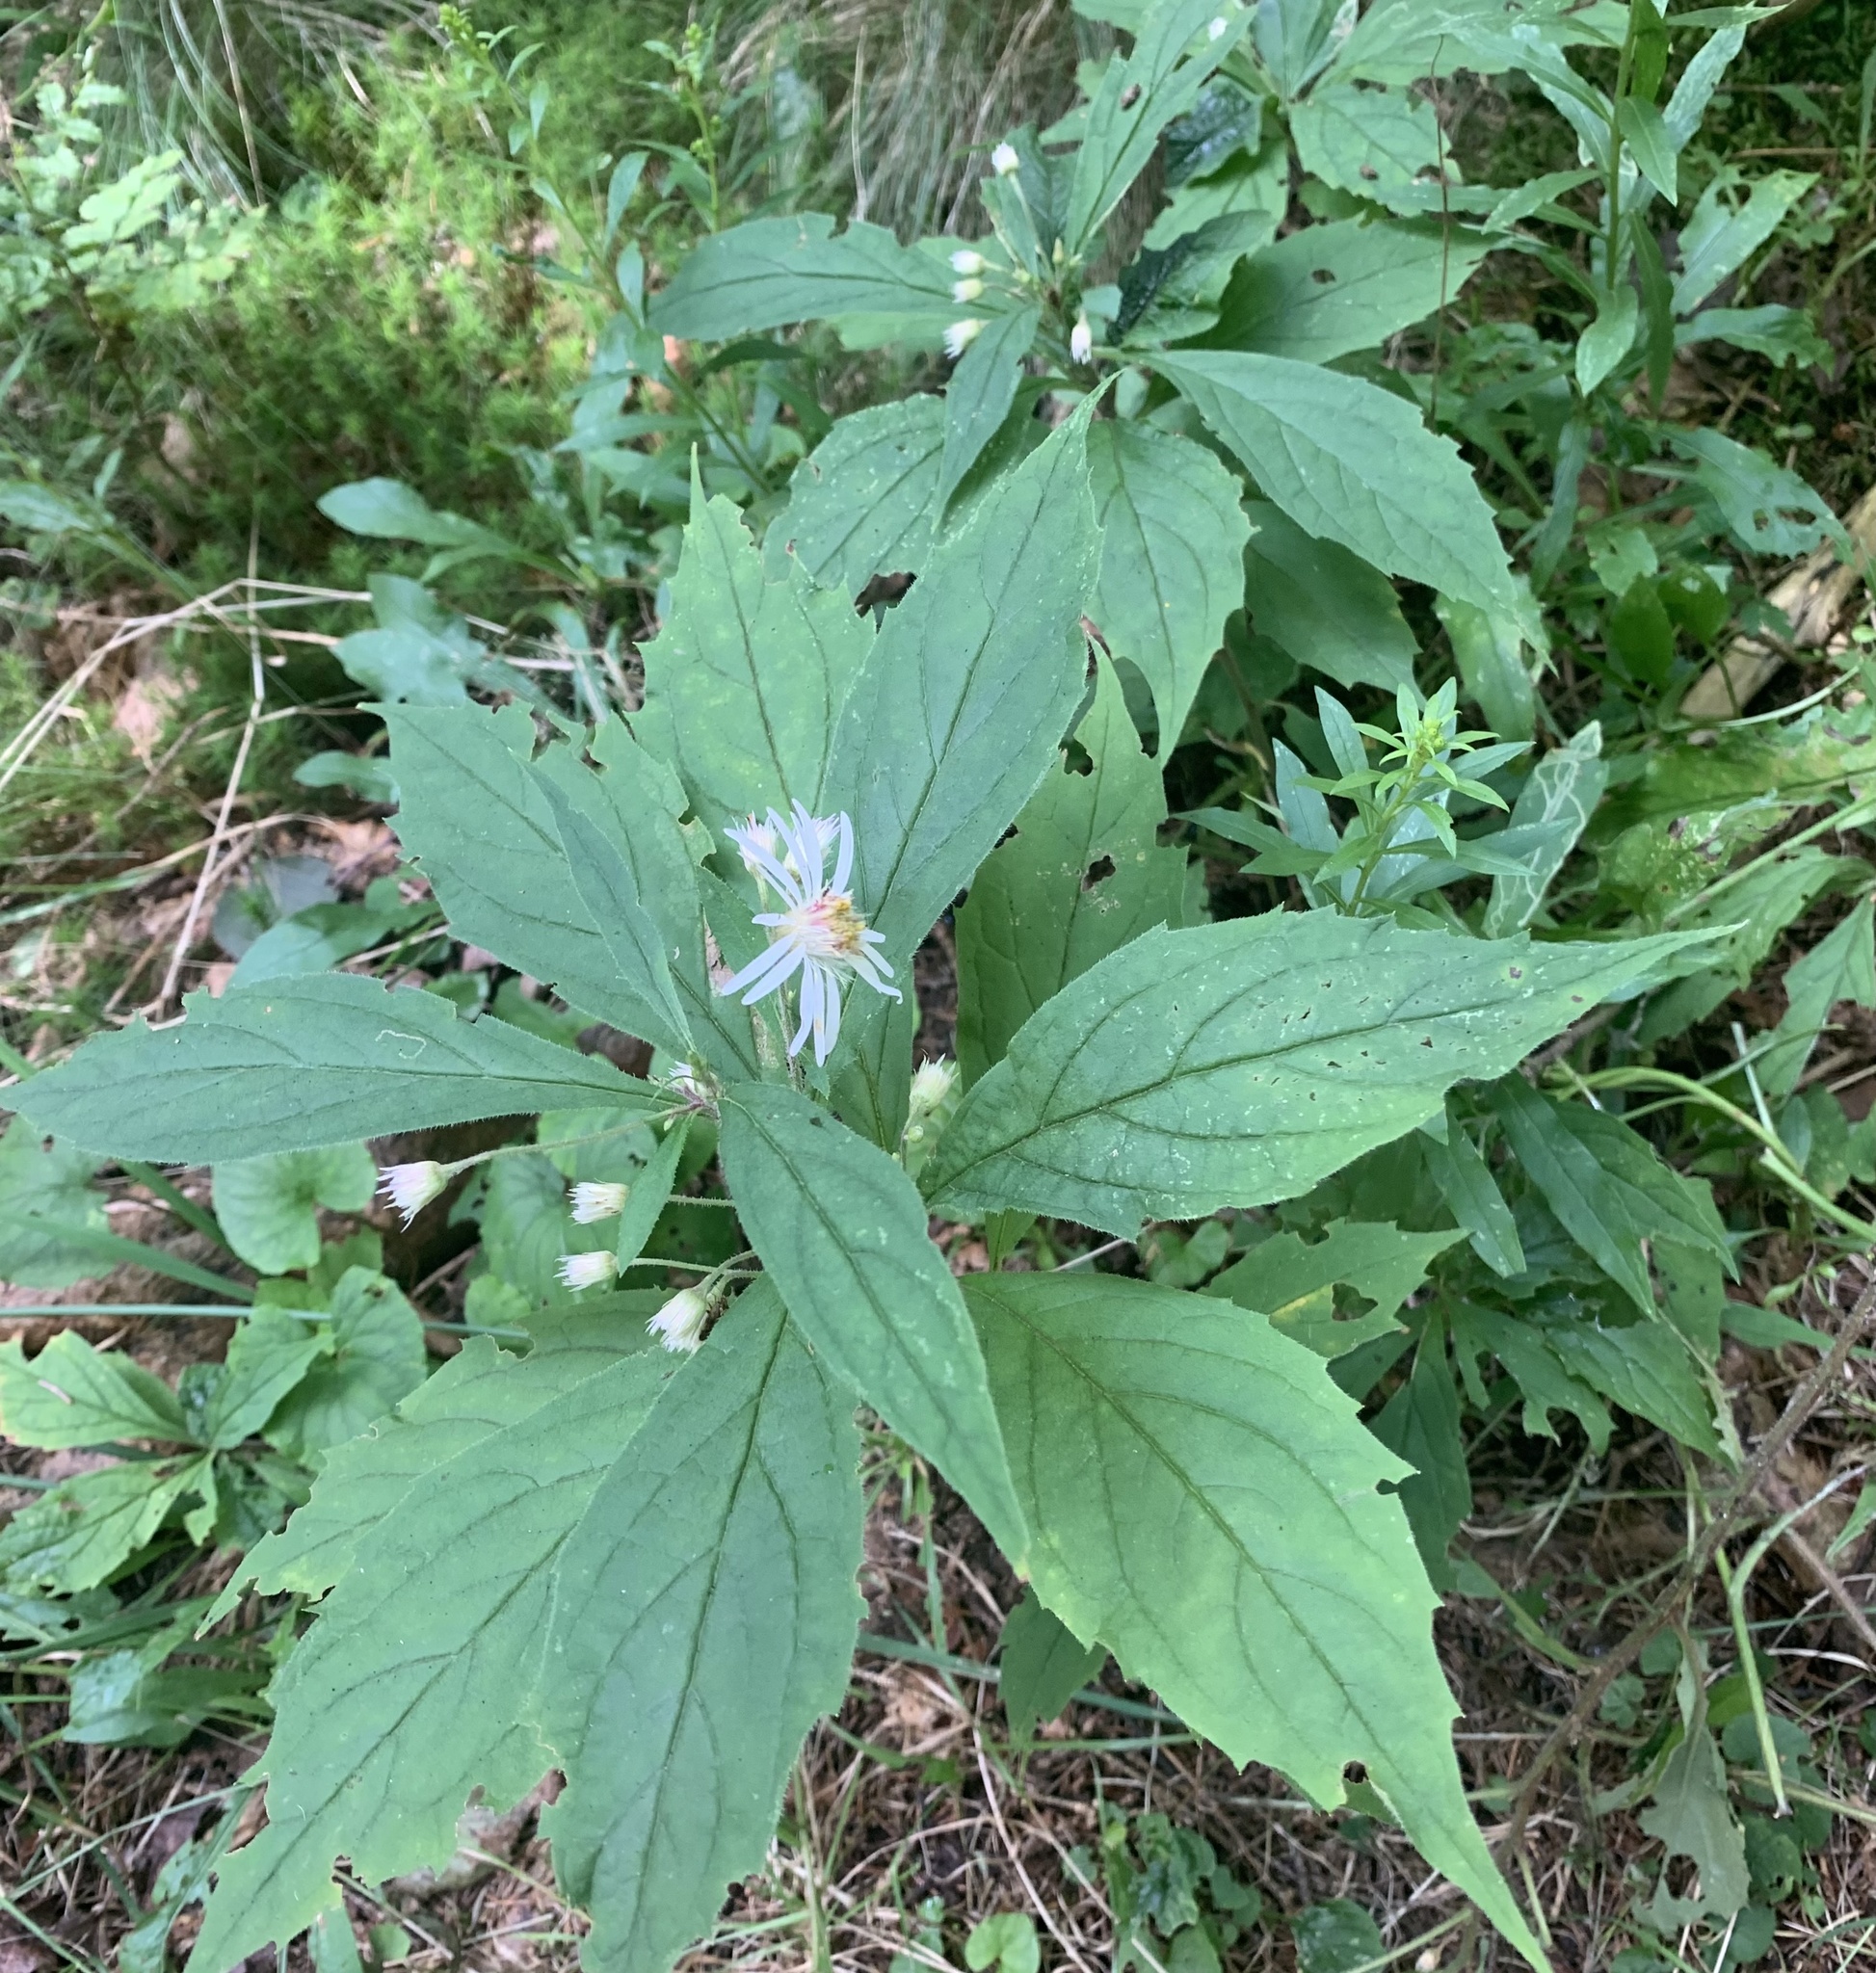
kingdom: Plantae
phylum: Tracheophyta
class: Magnoliopsida
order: Asterales
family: Asteraceae
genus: Oclemena
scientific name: Oclemena acuminata
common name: Mountain aster
